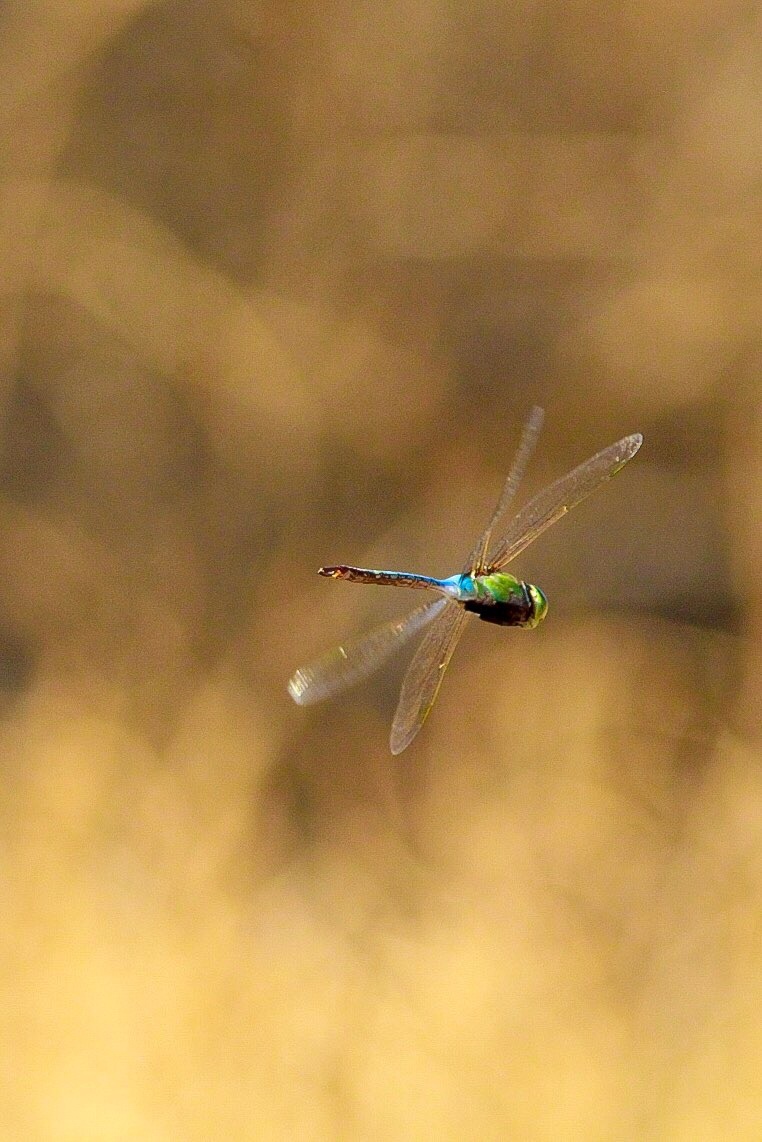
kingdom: Animalia
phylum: Arthropoda
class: Insecta
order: Odonata
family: Aeshnidae
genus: Anax
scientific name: Anax junius
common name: Common green darner
